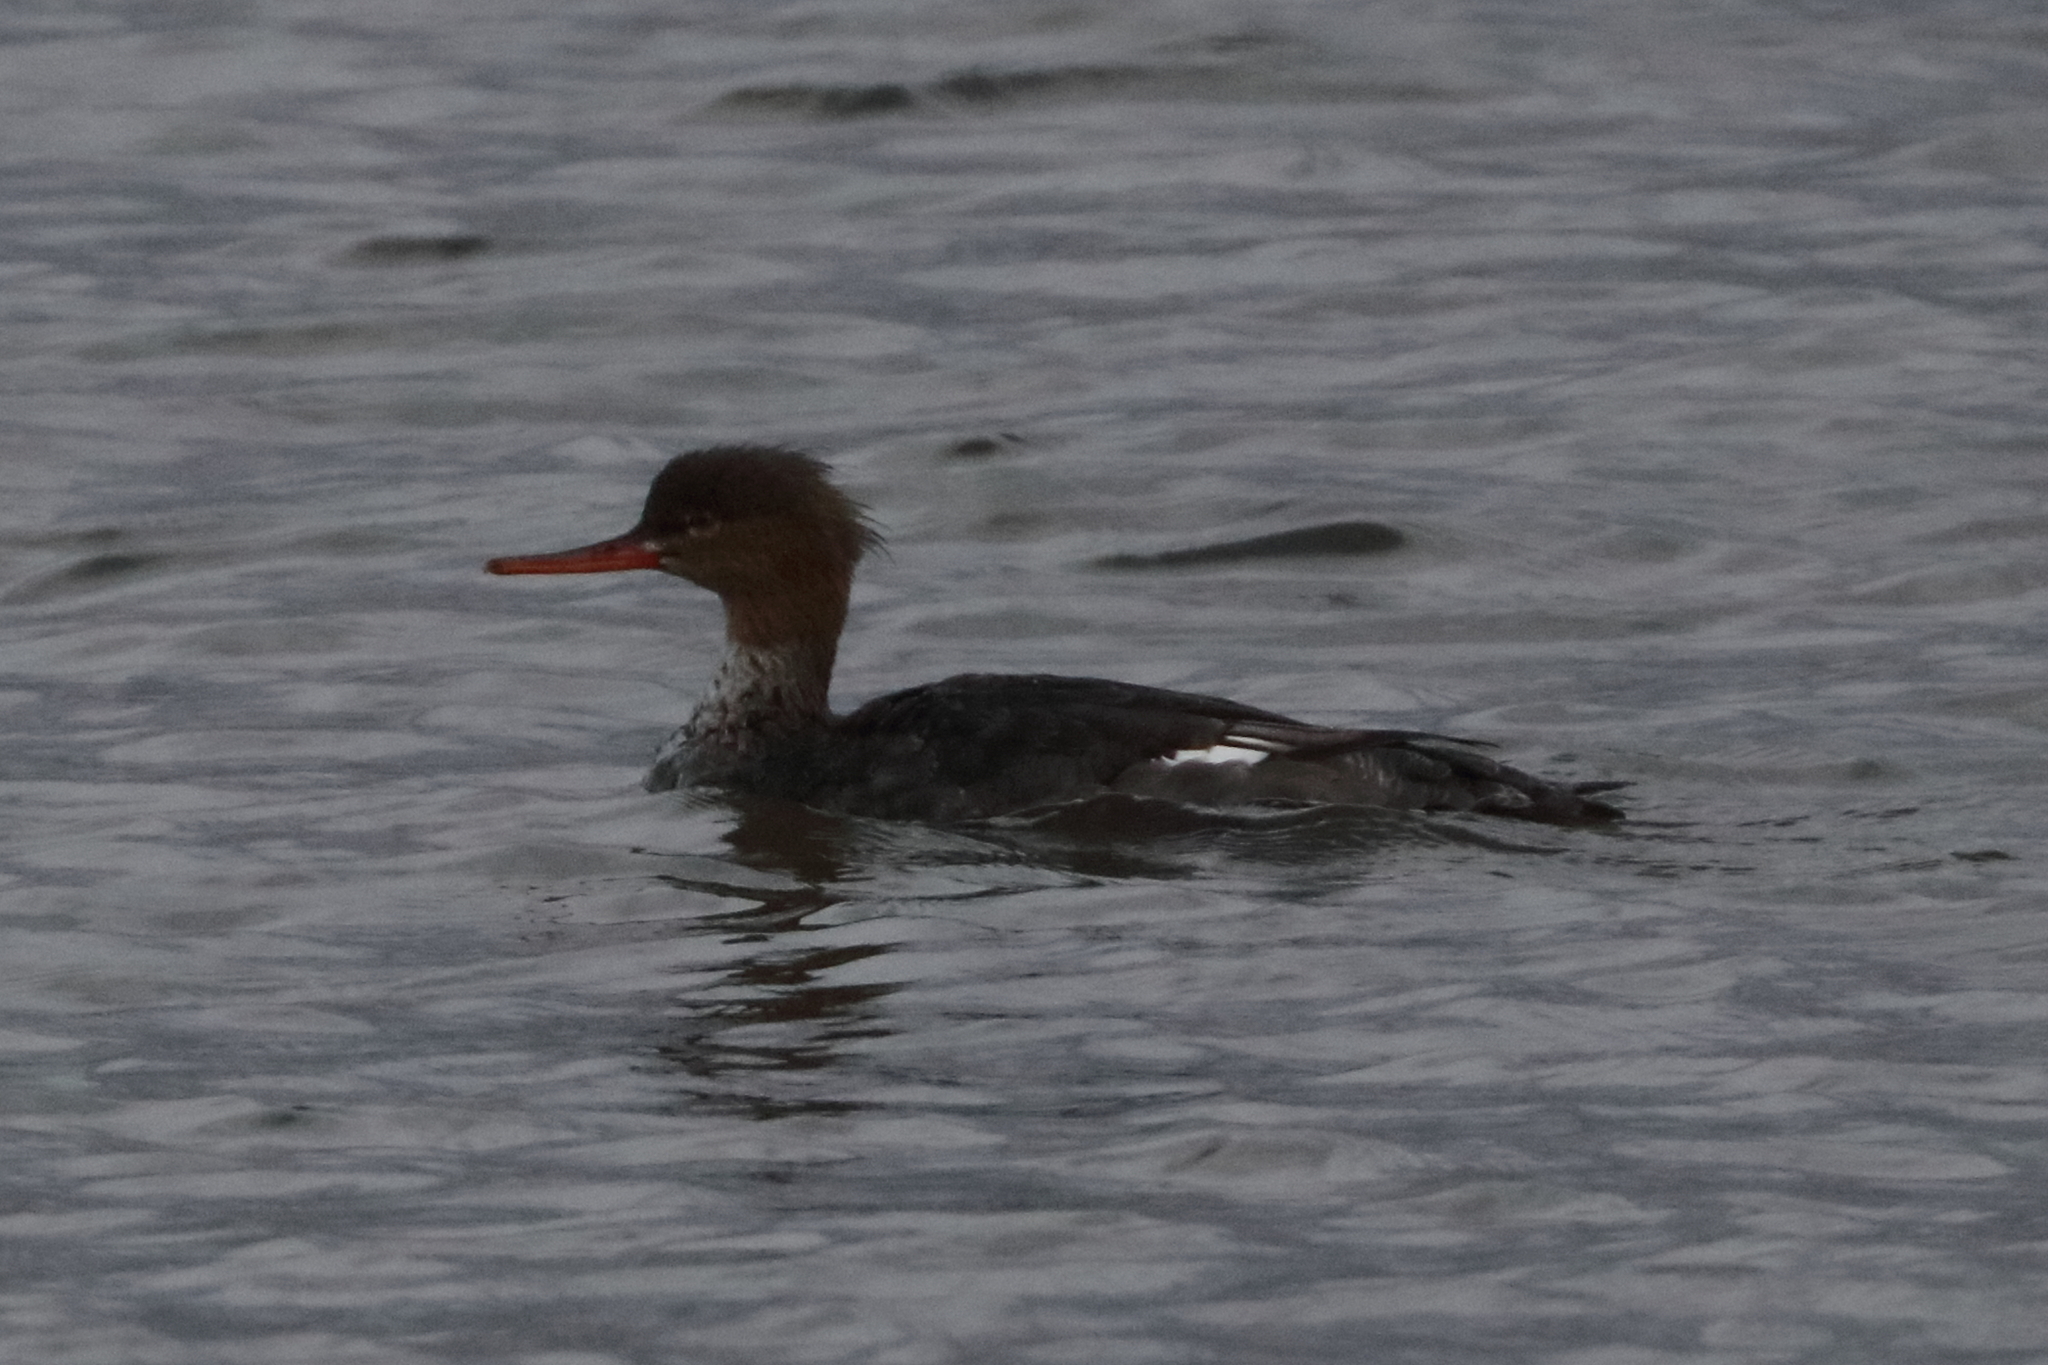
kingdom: Animalia
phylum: Chordata
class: Aves
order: Anseriformes
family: Anatidae
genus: Mergus
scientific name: Mergus serrator
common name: Red-breasted merganser
